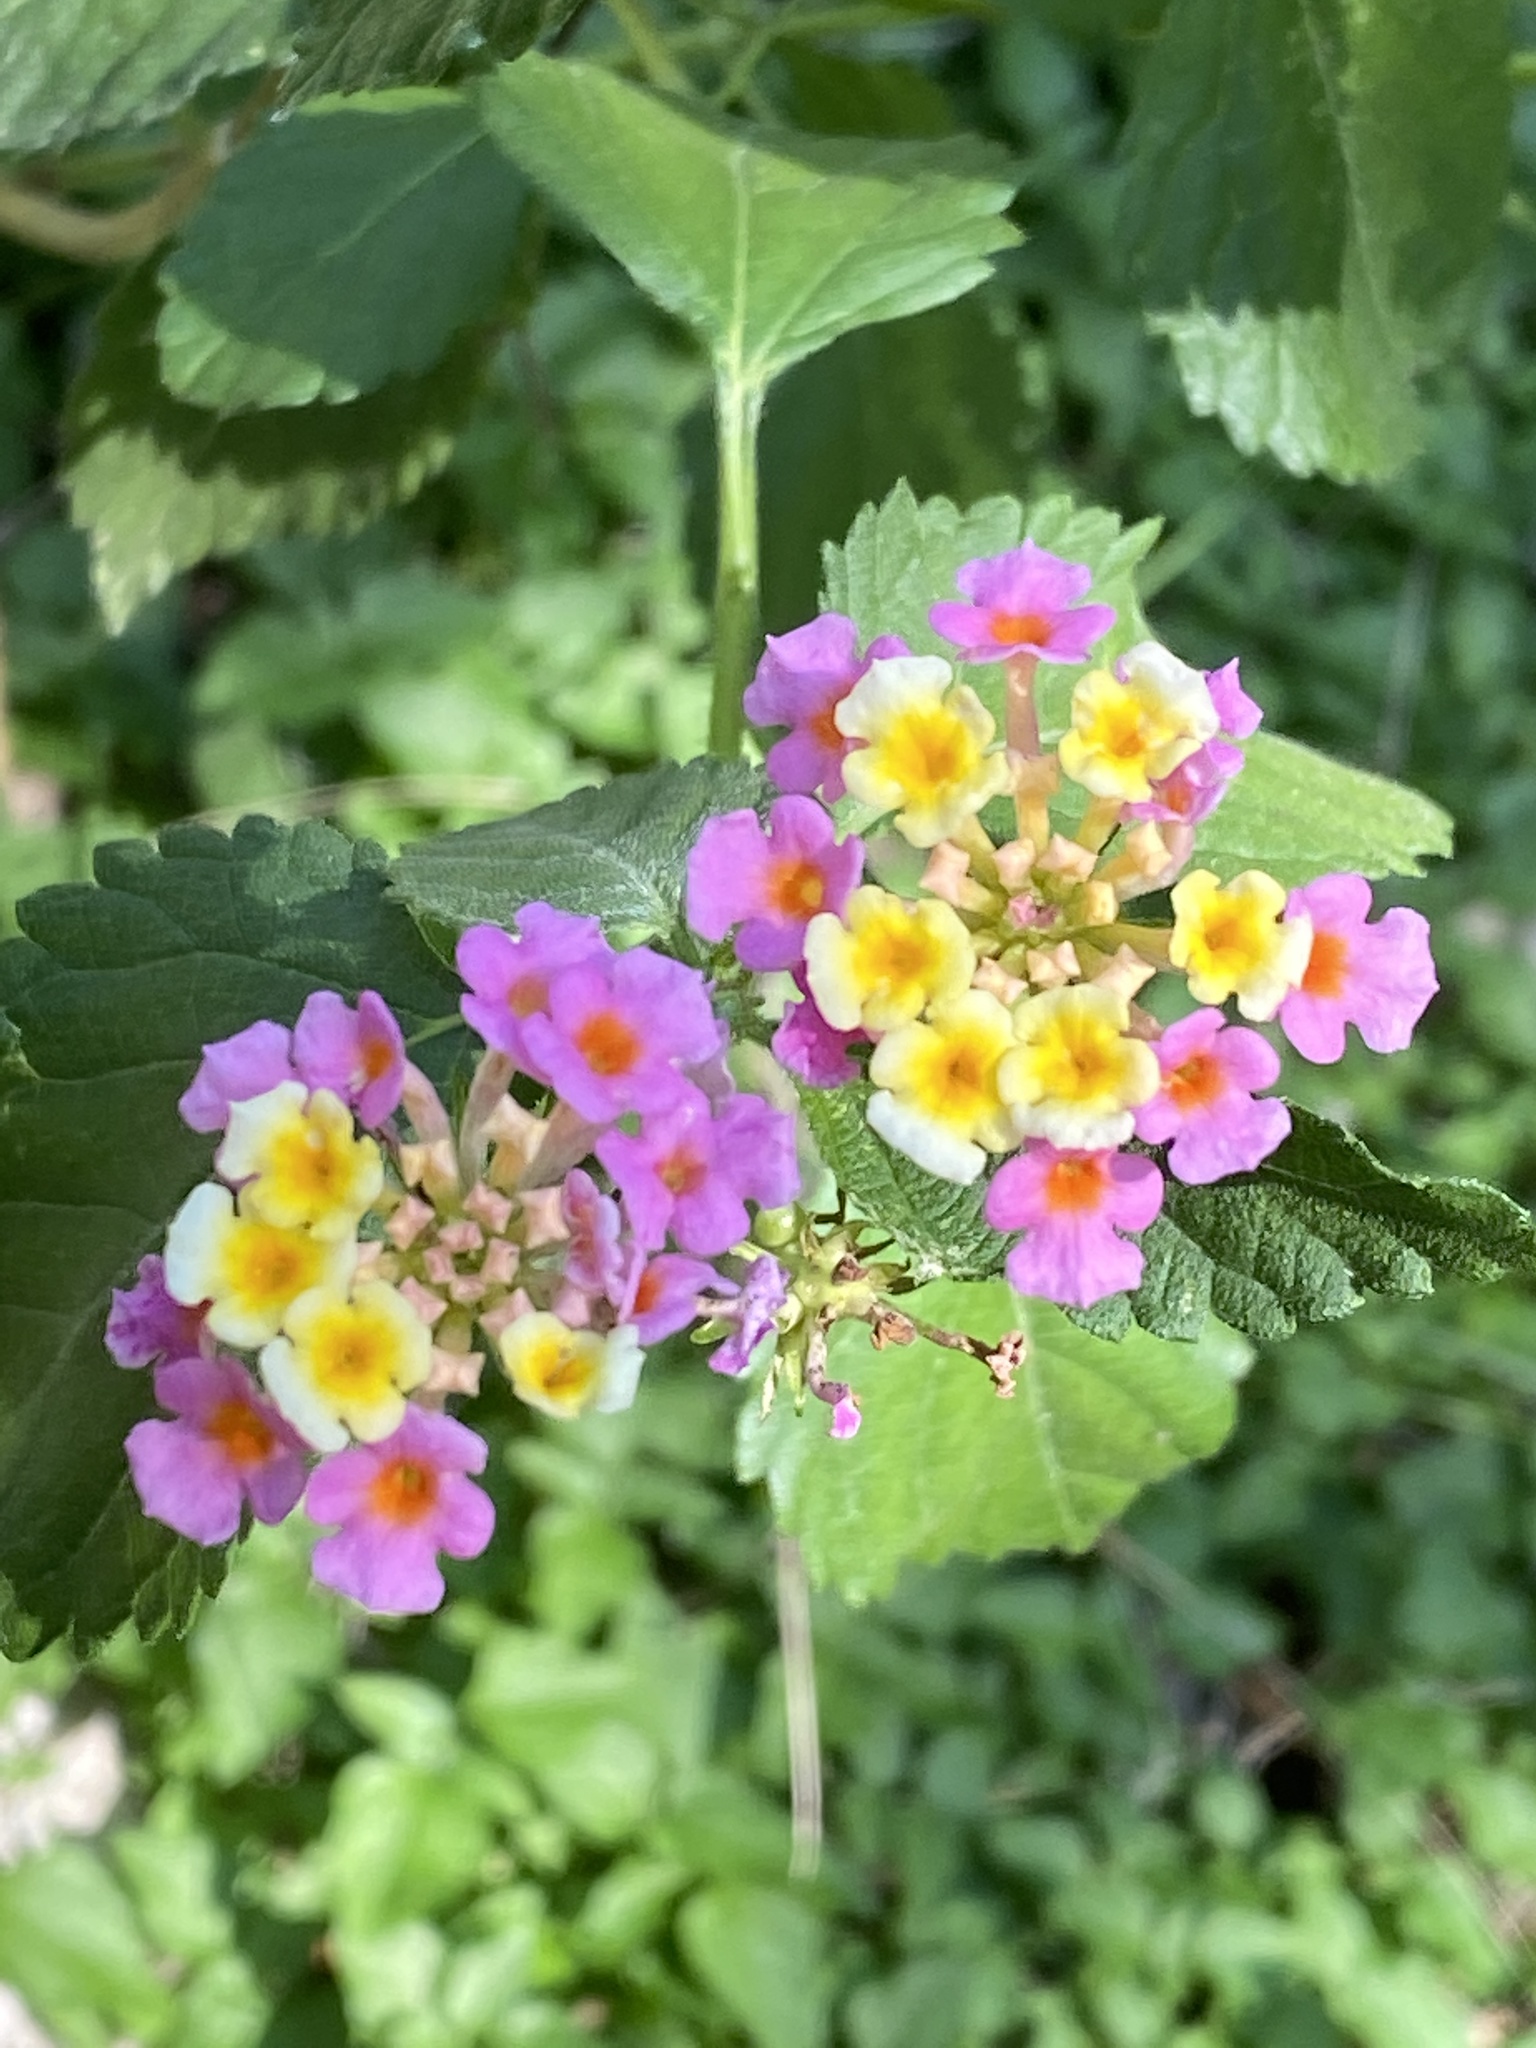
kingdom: Plantae
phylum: Tracheophyta
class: Magnoliopsida
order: Lamiales
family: Verbenaceae
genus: Lantana
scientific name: Lantana strigocamara
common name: Lantana
